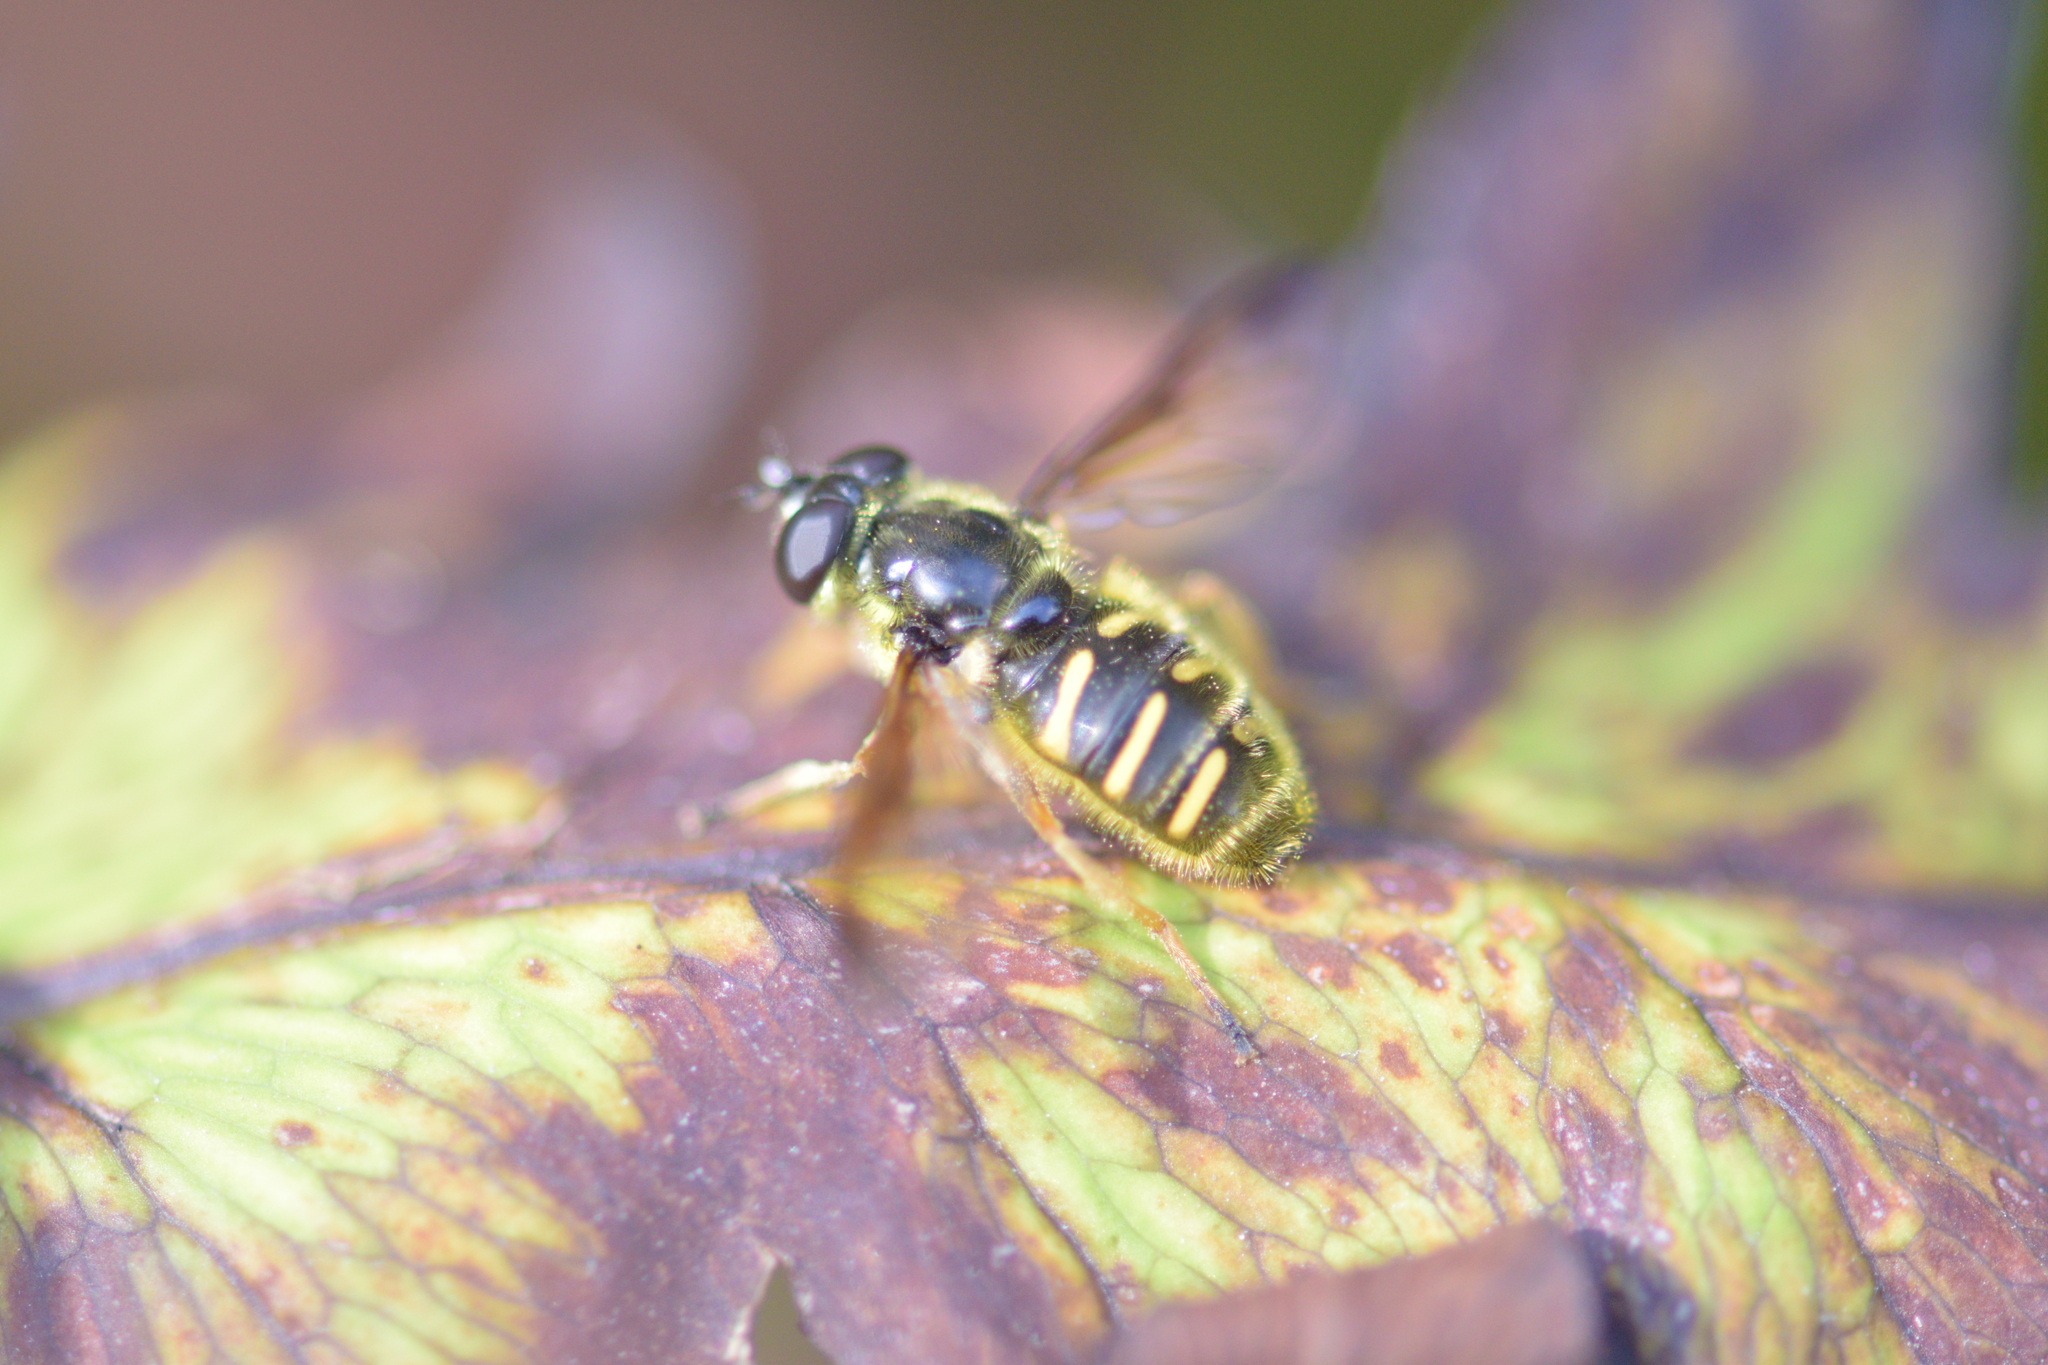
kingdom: Animalia
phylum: Arthropoda
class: Insecta
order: Diptera
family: Syrphidae
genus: Sericomyia
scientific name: Sericomyia chrysotoxoides
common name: Oblique-banded pond fly
